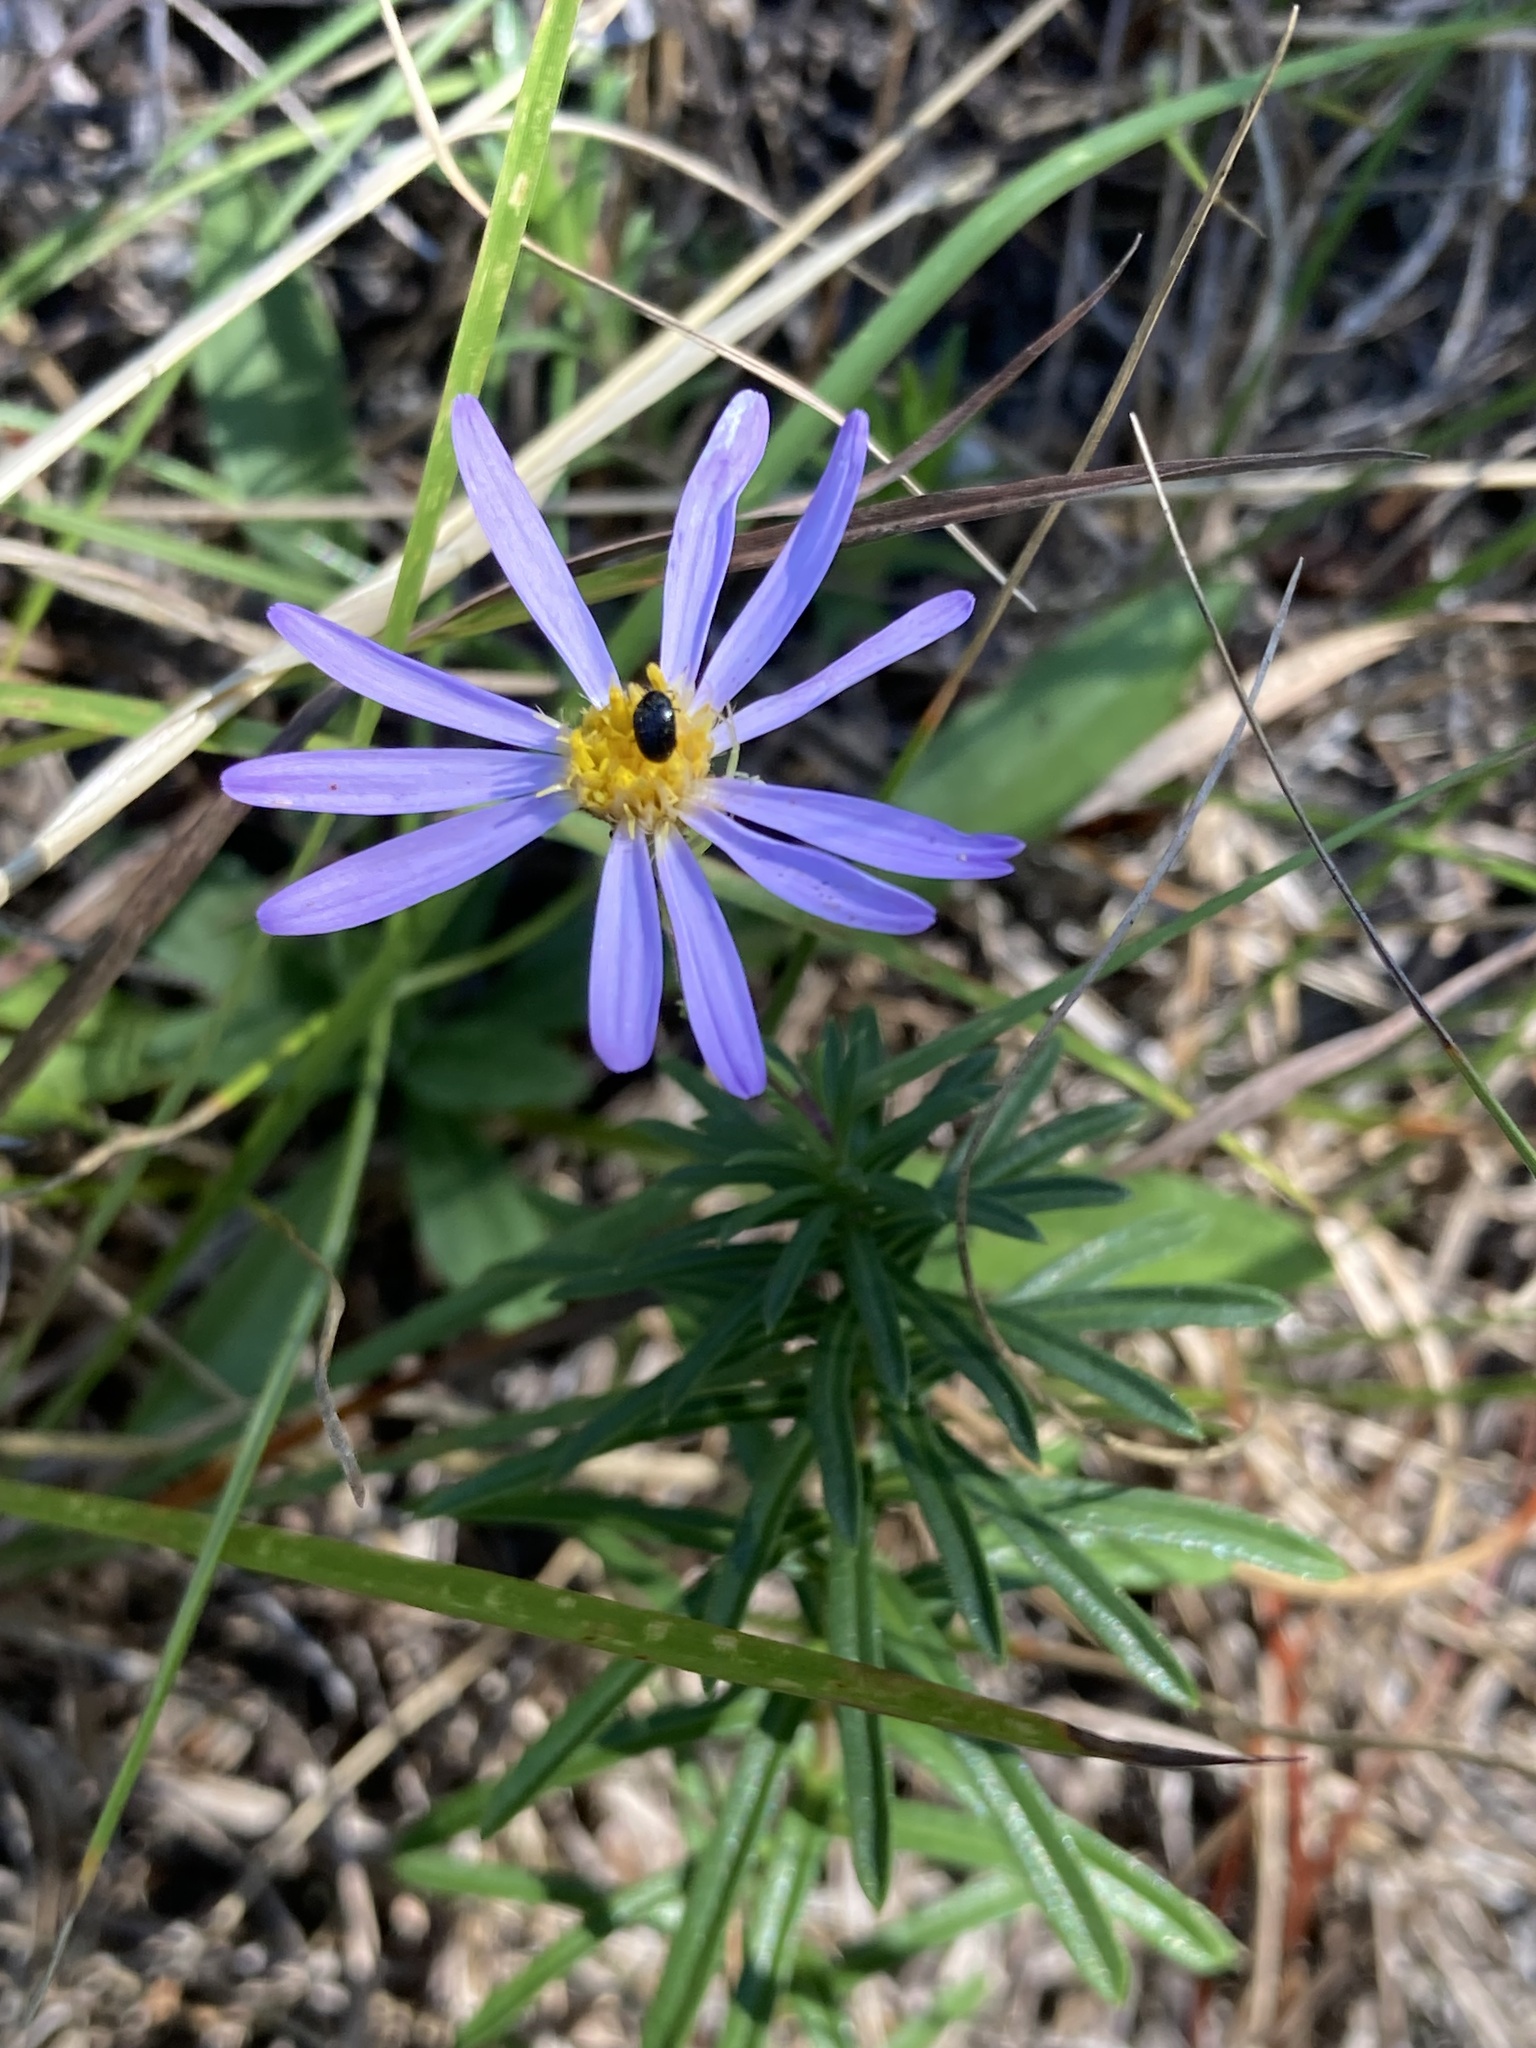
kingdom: Plantae
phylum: Tracheophyta
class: Magnoliopsida
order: Asterales
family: Asteraceae
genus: Ionactis
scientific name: Ionactis linariifolia
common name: Flax-leaf aster
